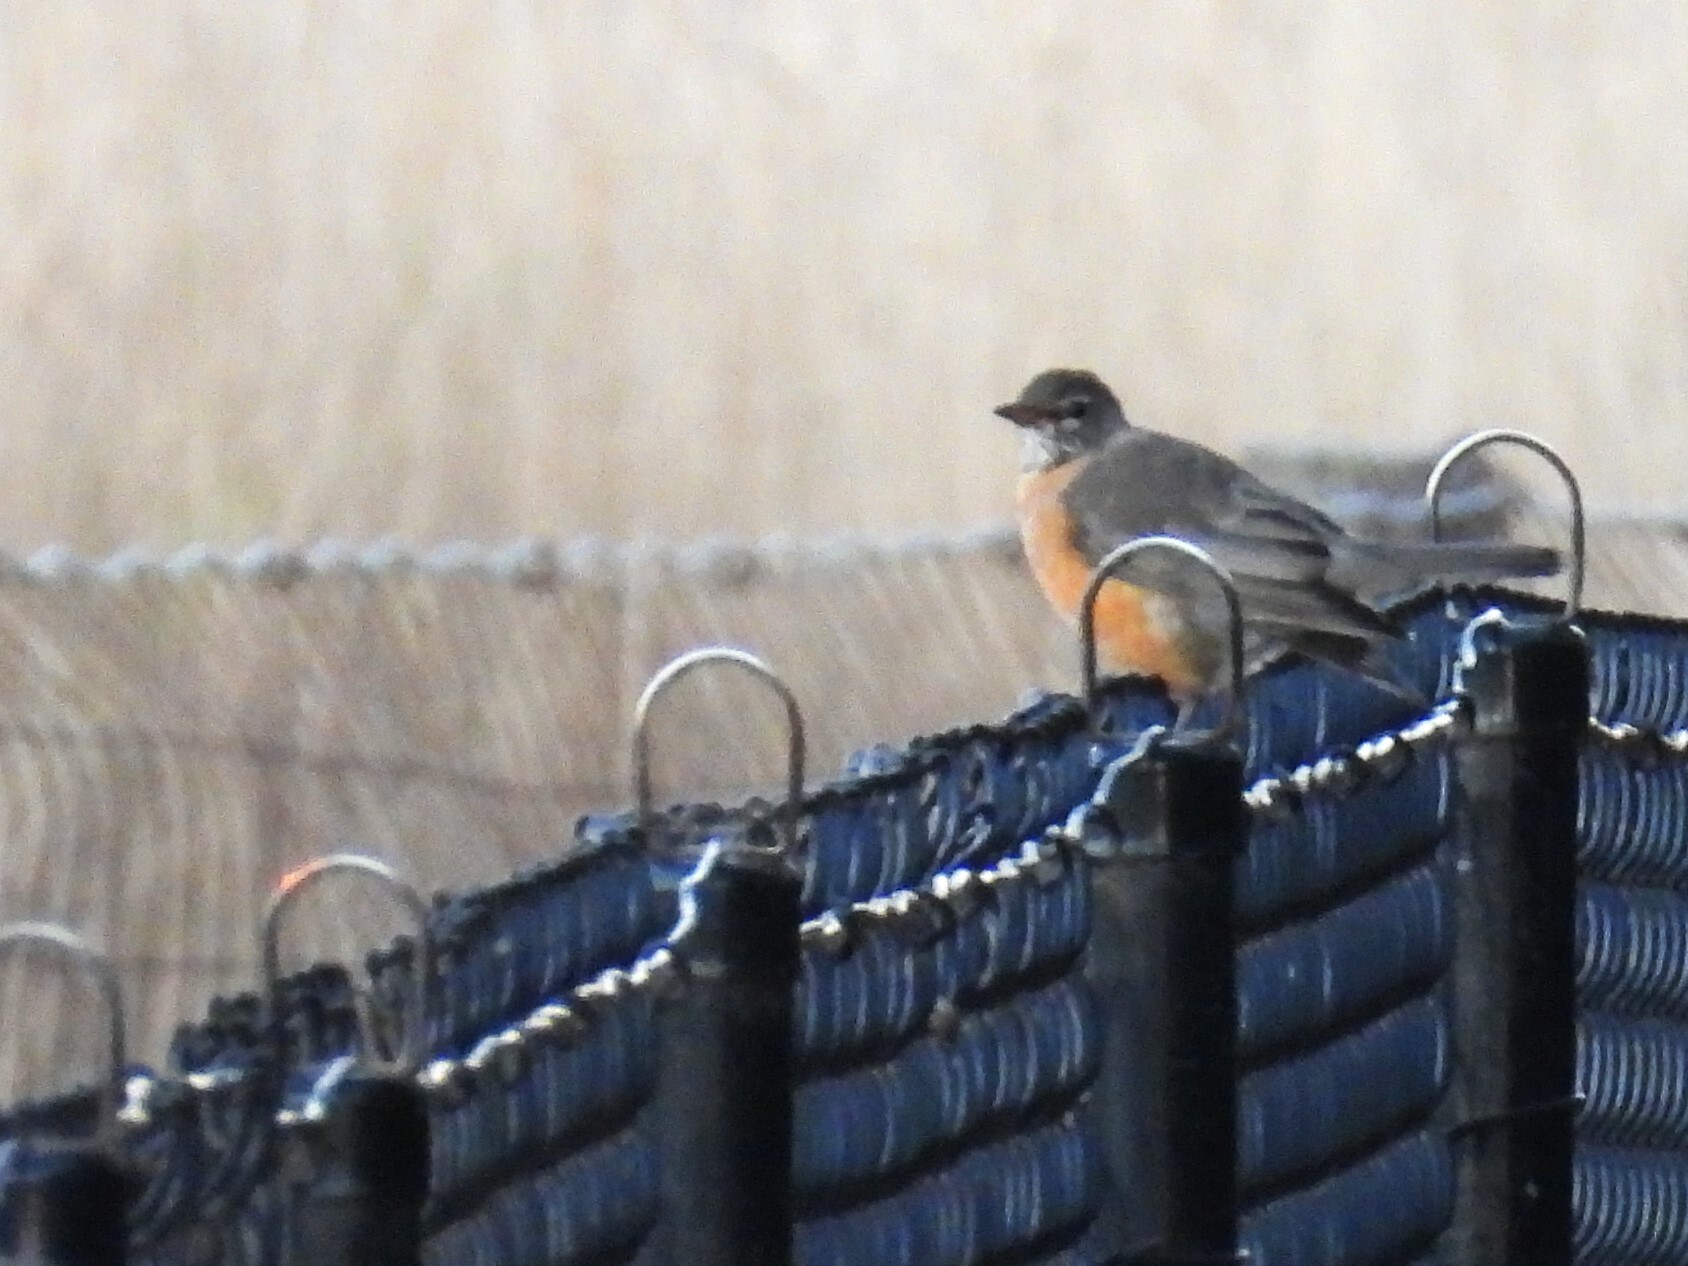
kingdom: Animalia
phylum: Chordata
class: Aves
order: Passeriformes
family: Turdidae
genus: Turdus
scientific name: Turdus migratorius
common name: American robin
